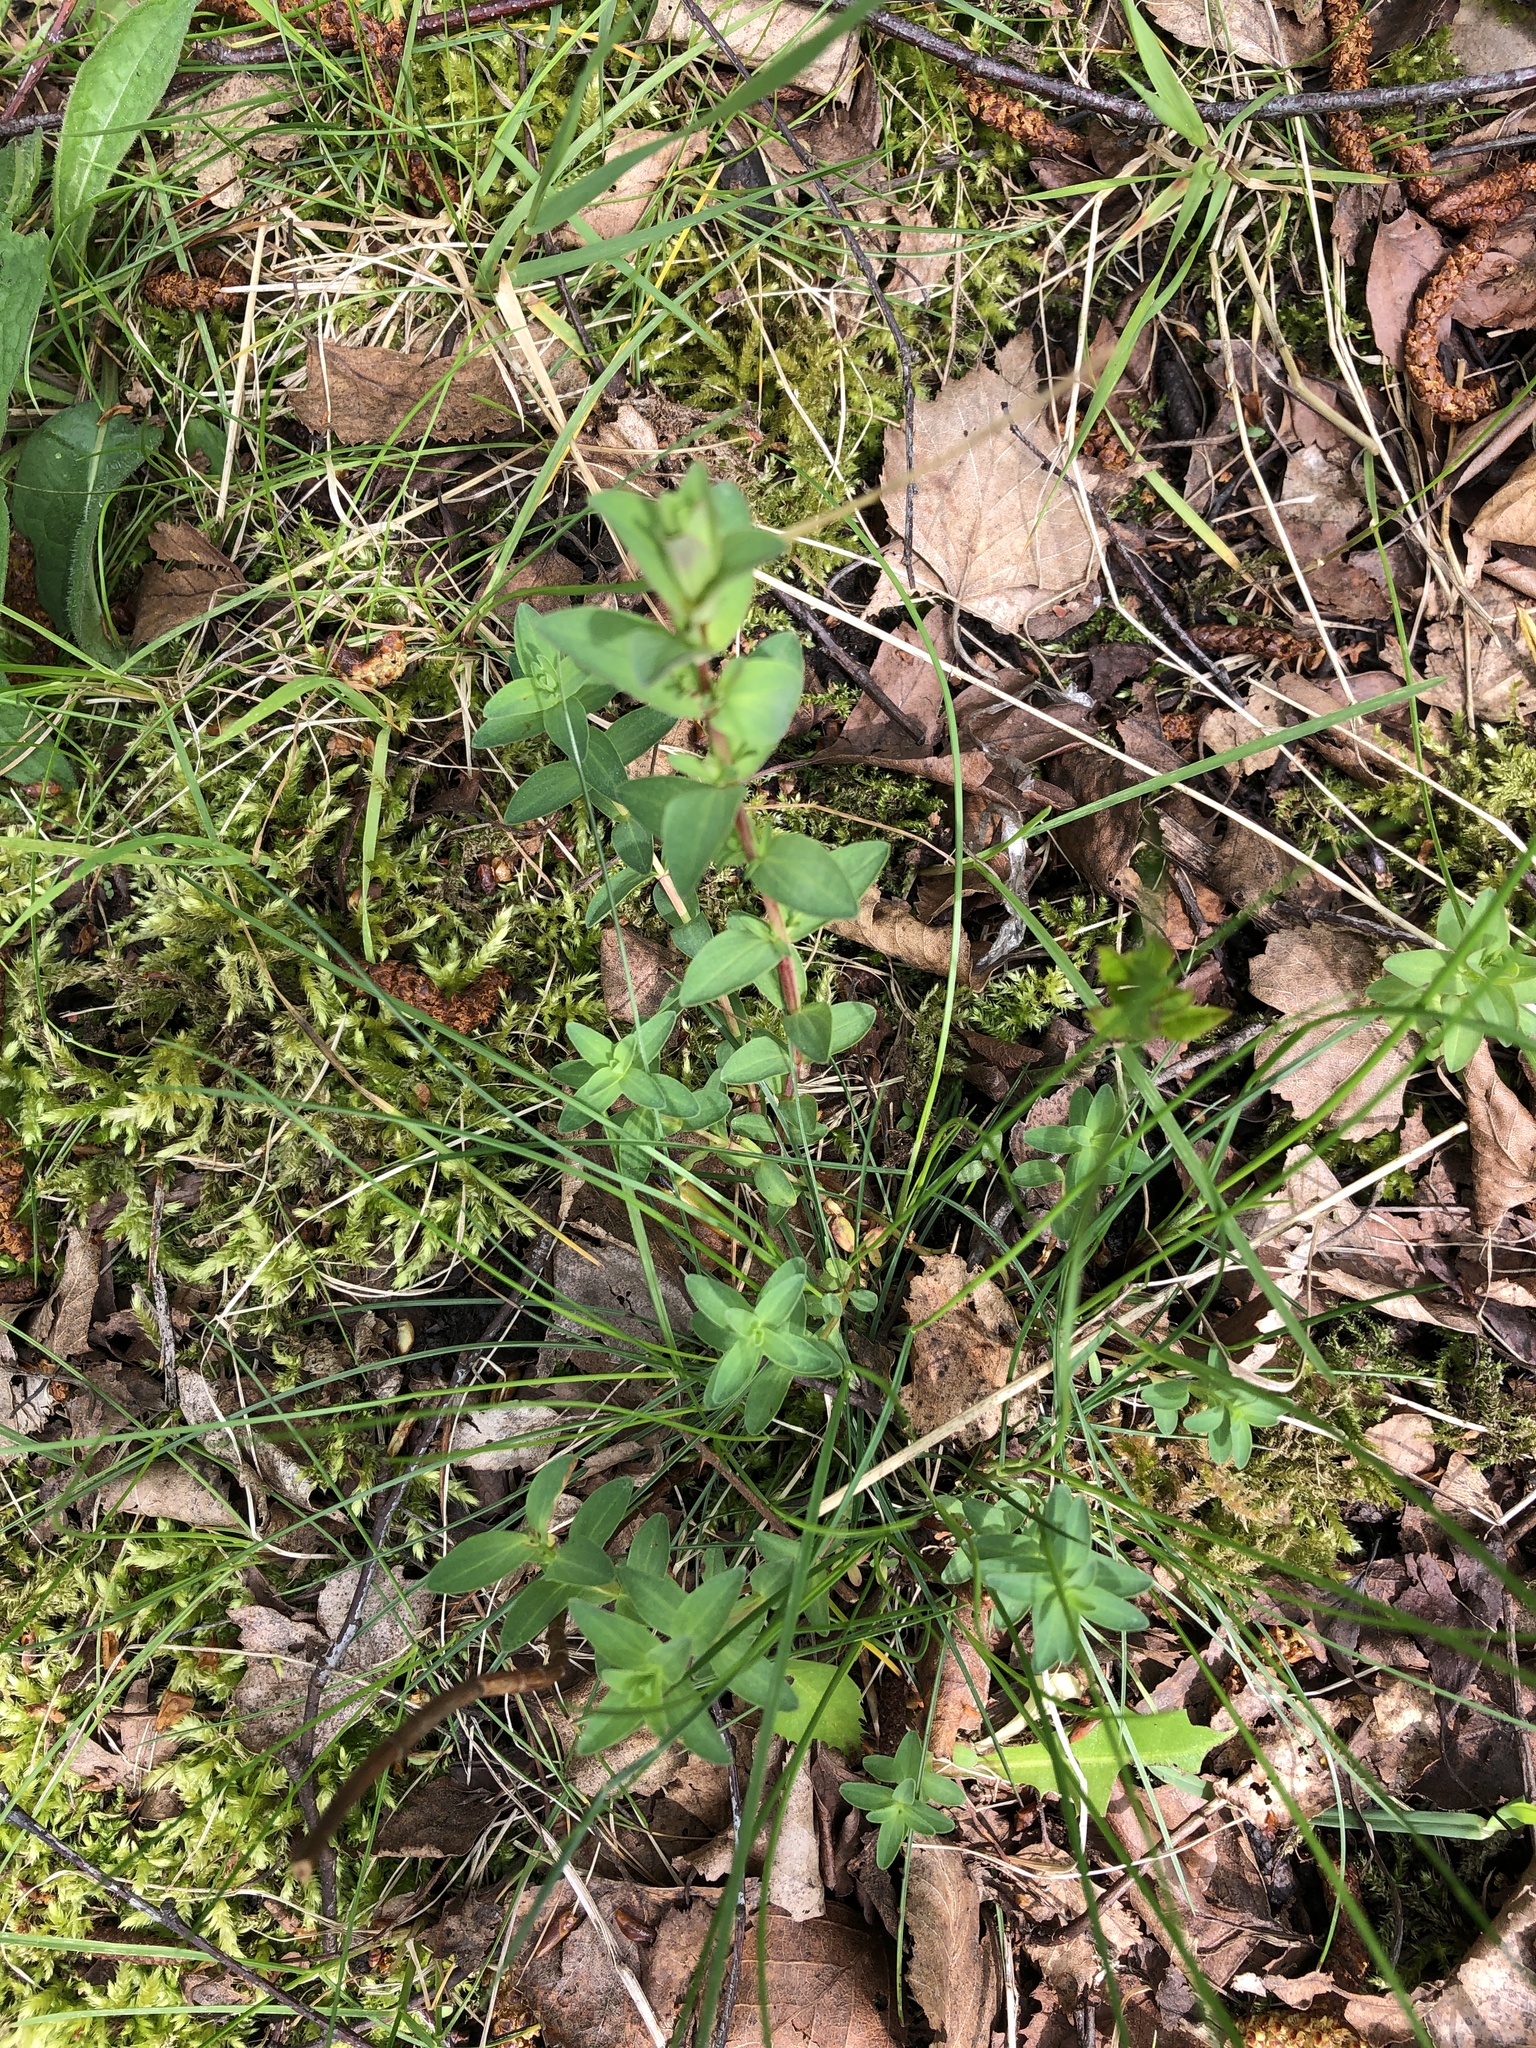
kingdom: Plantae
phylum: Tracheophyta
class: Magnoliopsida
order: Malpighiales
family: Hypericaceae
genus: Hypericum
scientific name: Hypericum perforatum
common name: Common st. johnswort
